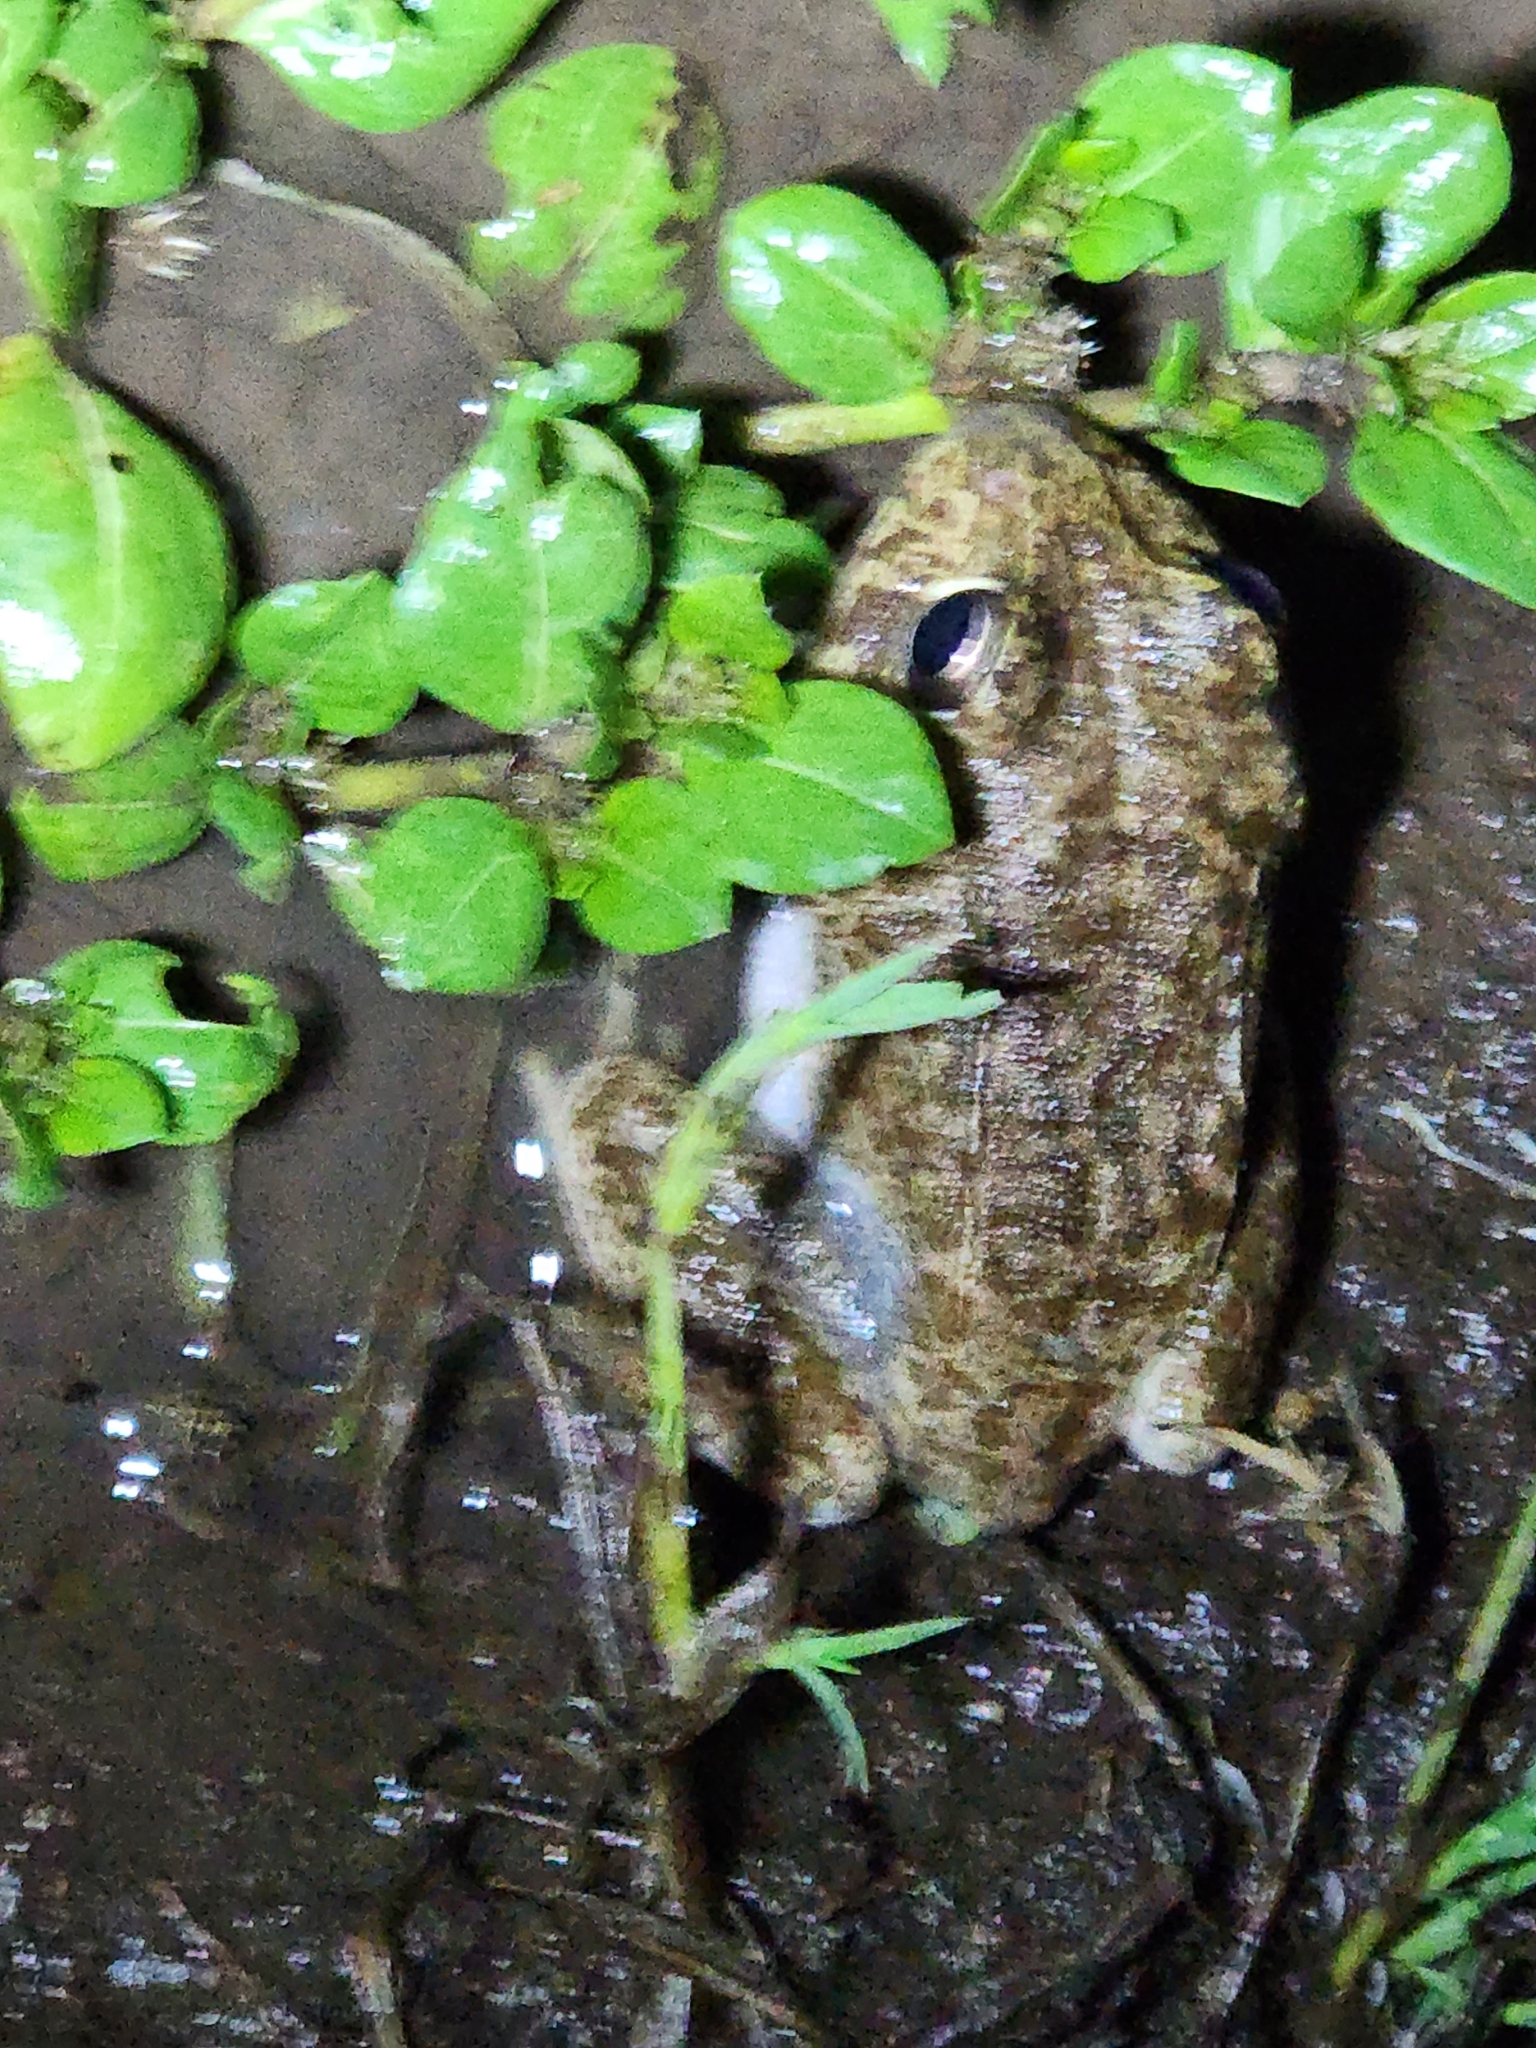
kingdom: Animalia
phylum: Chordata
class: Amphibia
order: Anura
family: Pelodryadidae
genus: Ranoidea
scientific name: Ranoidea novaehollandiae
